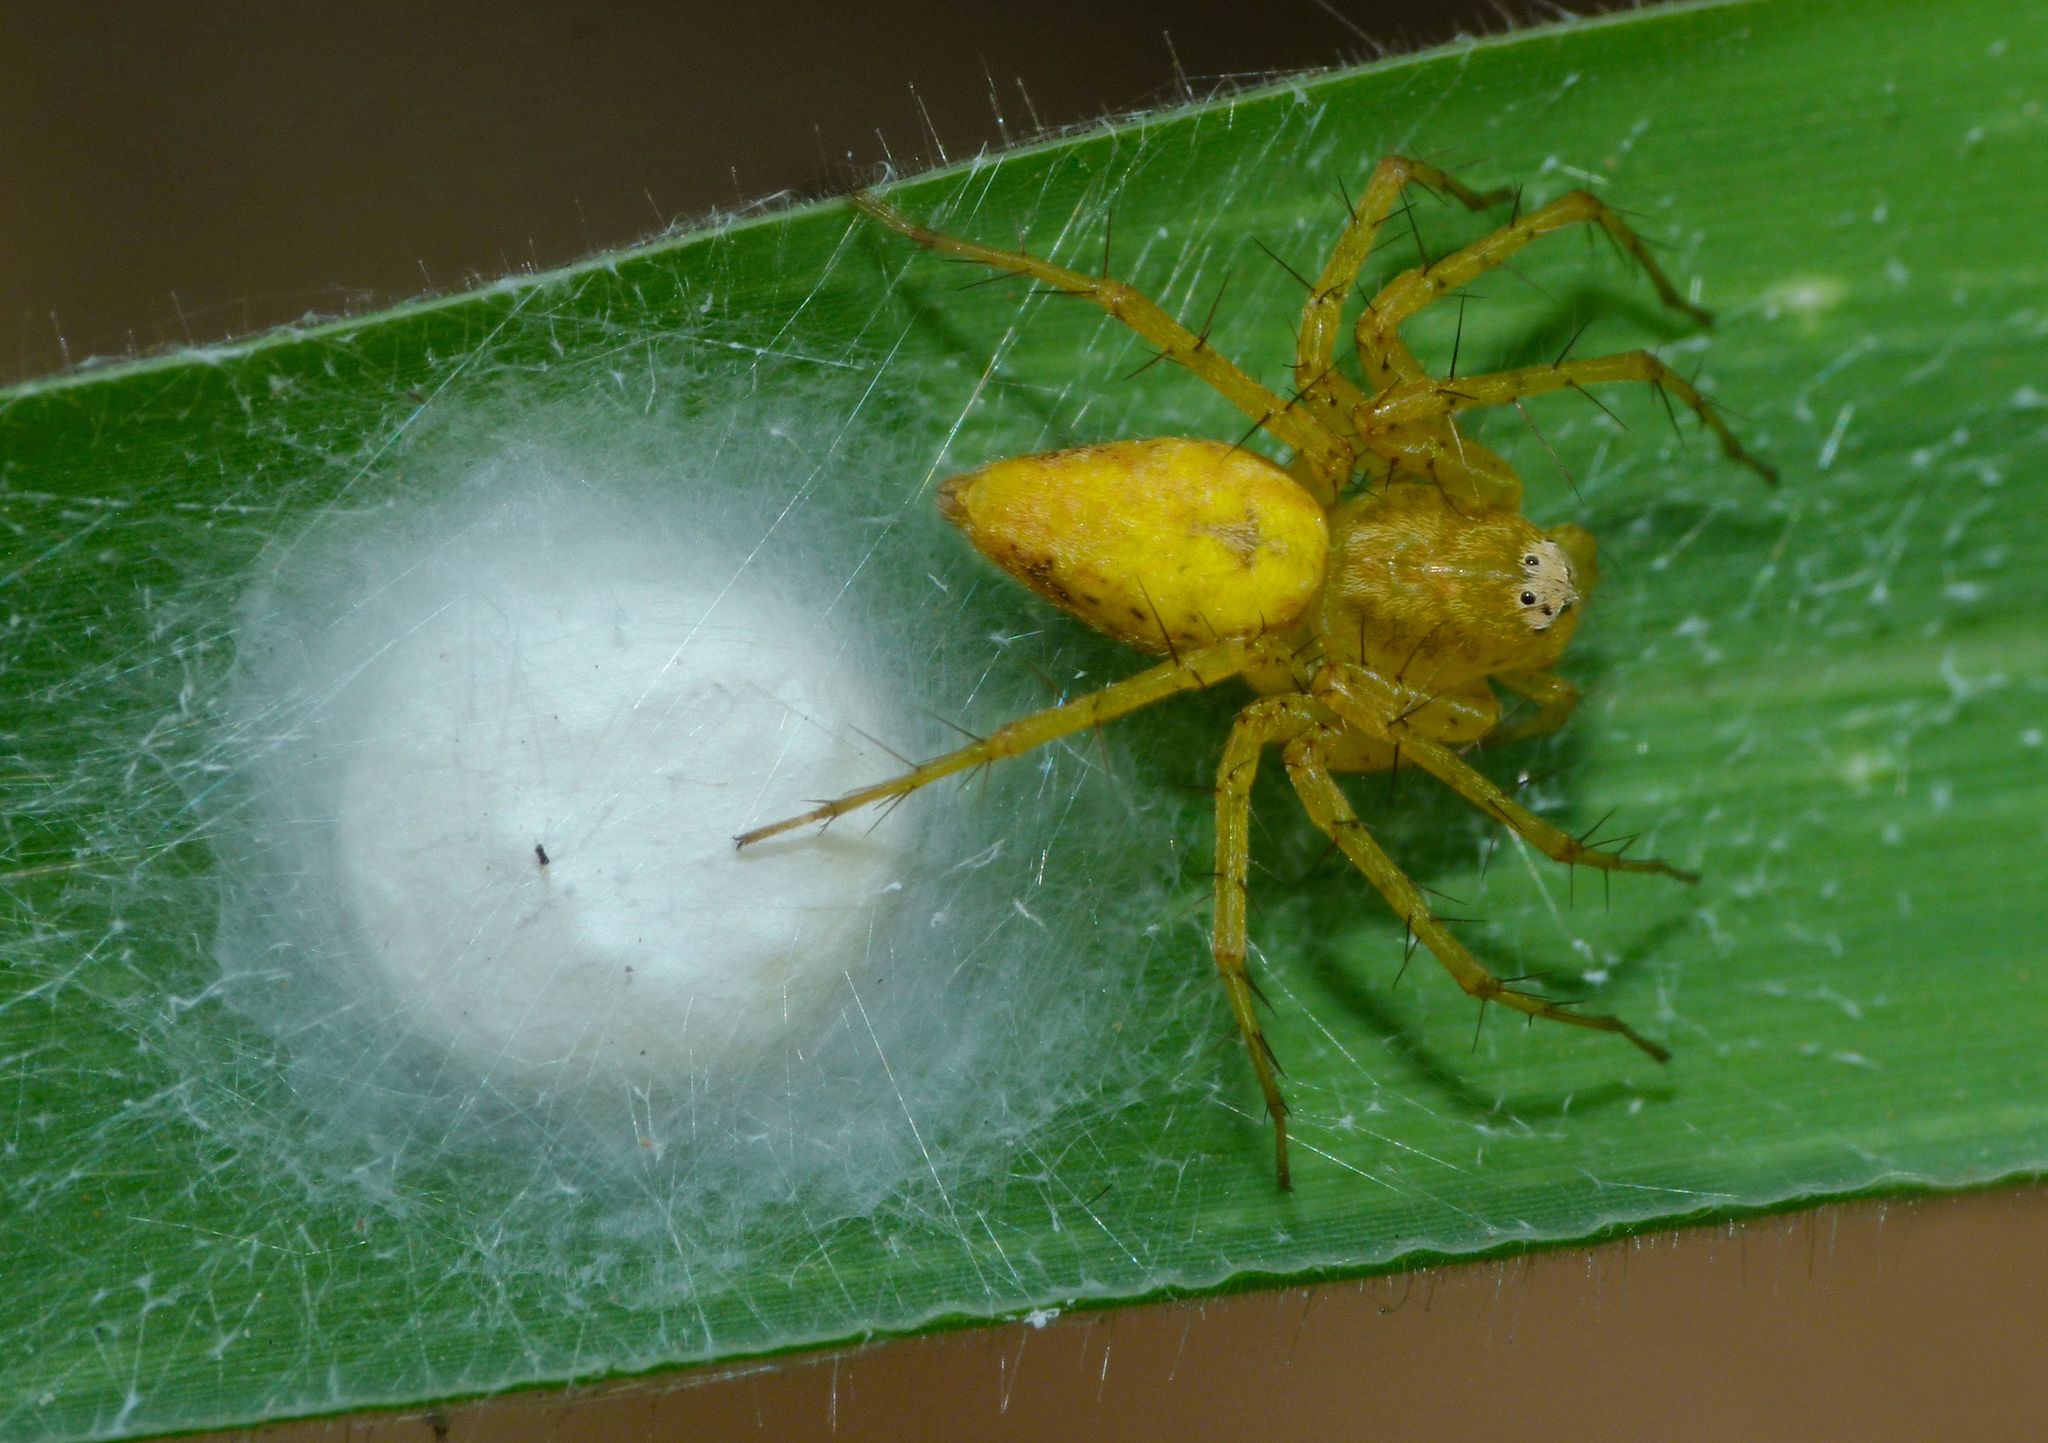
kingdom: Animalia
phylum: Arthropoda
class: Arachnida
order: Araneae
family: Oxyopidae
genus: Oxyopes
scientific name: Oxyopes variabilis
